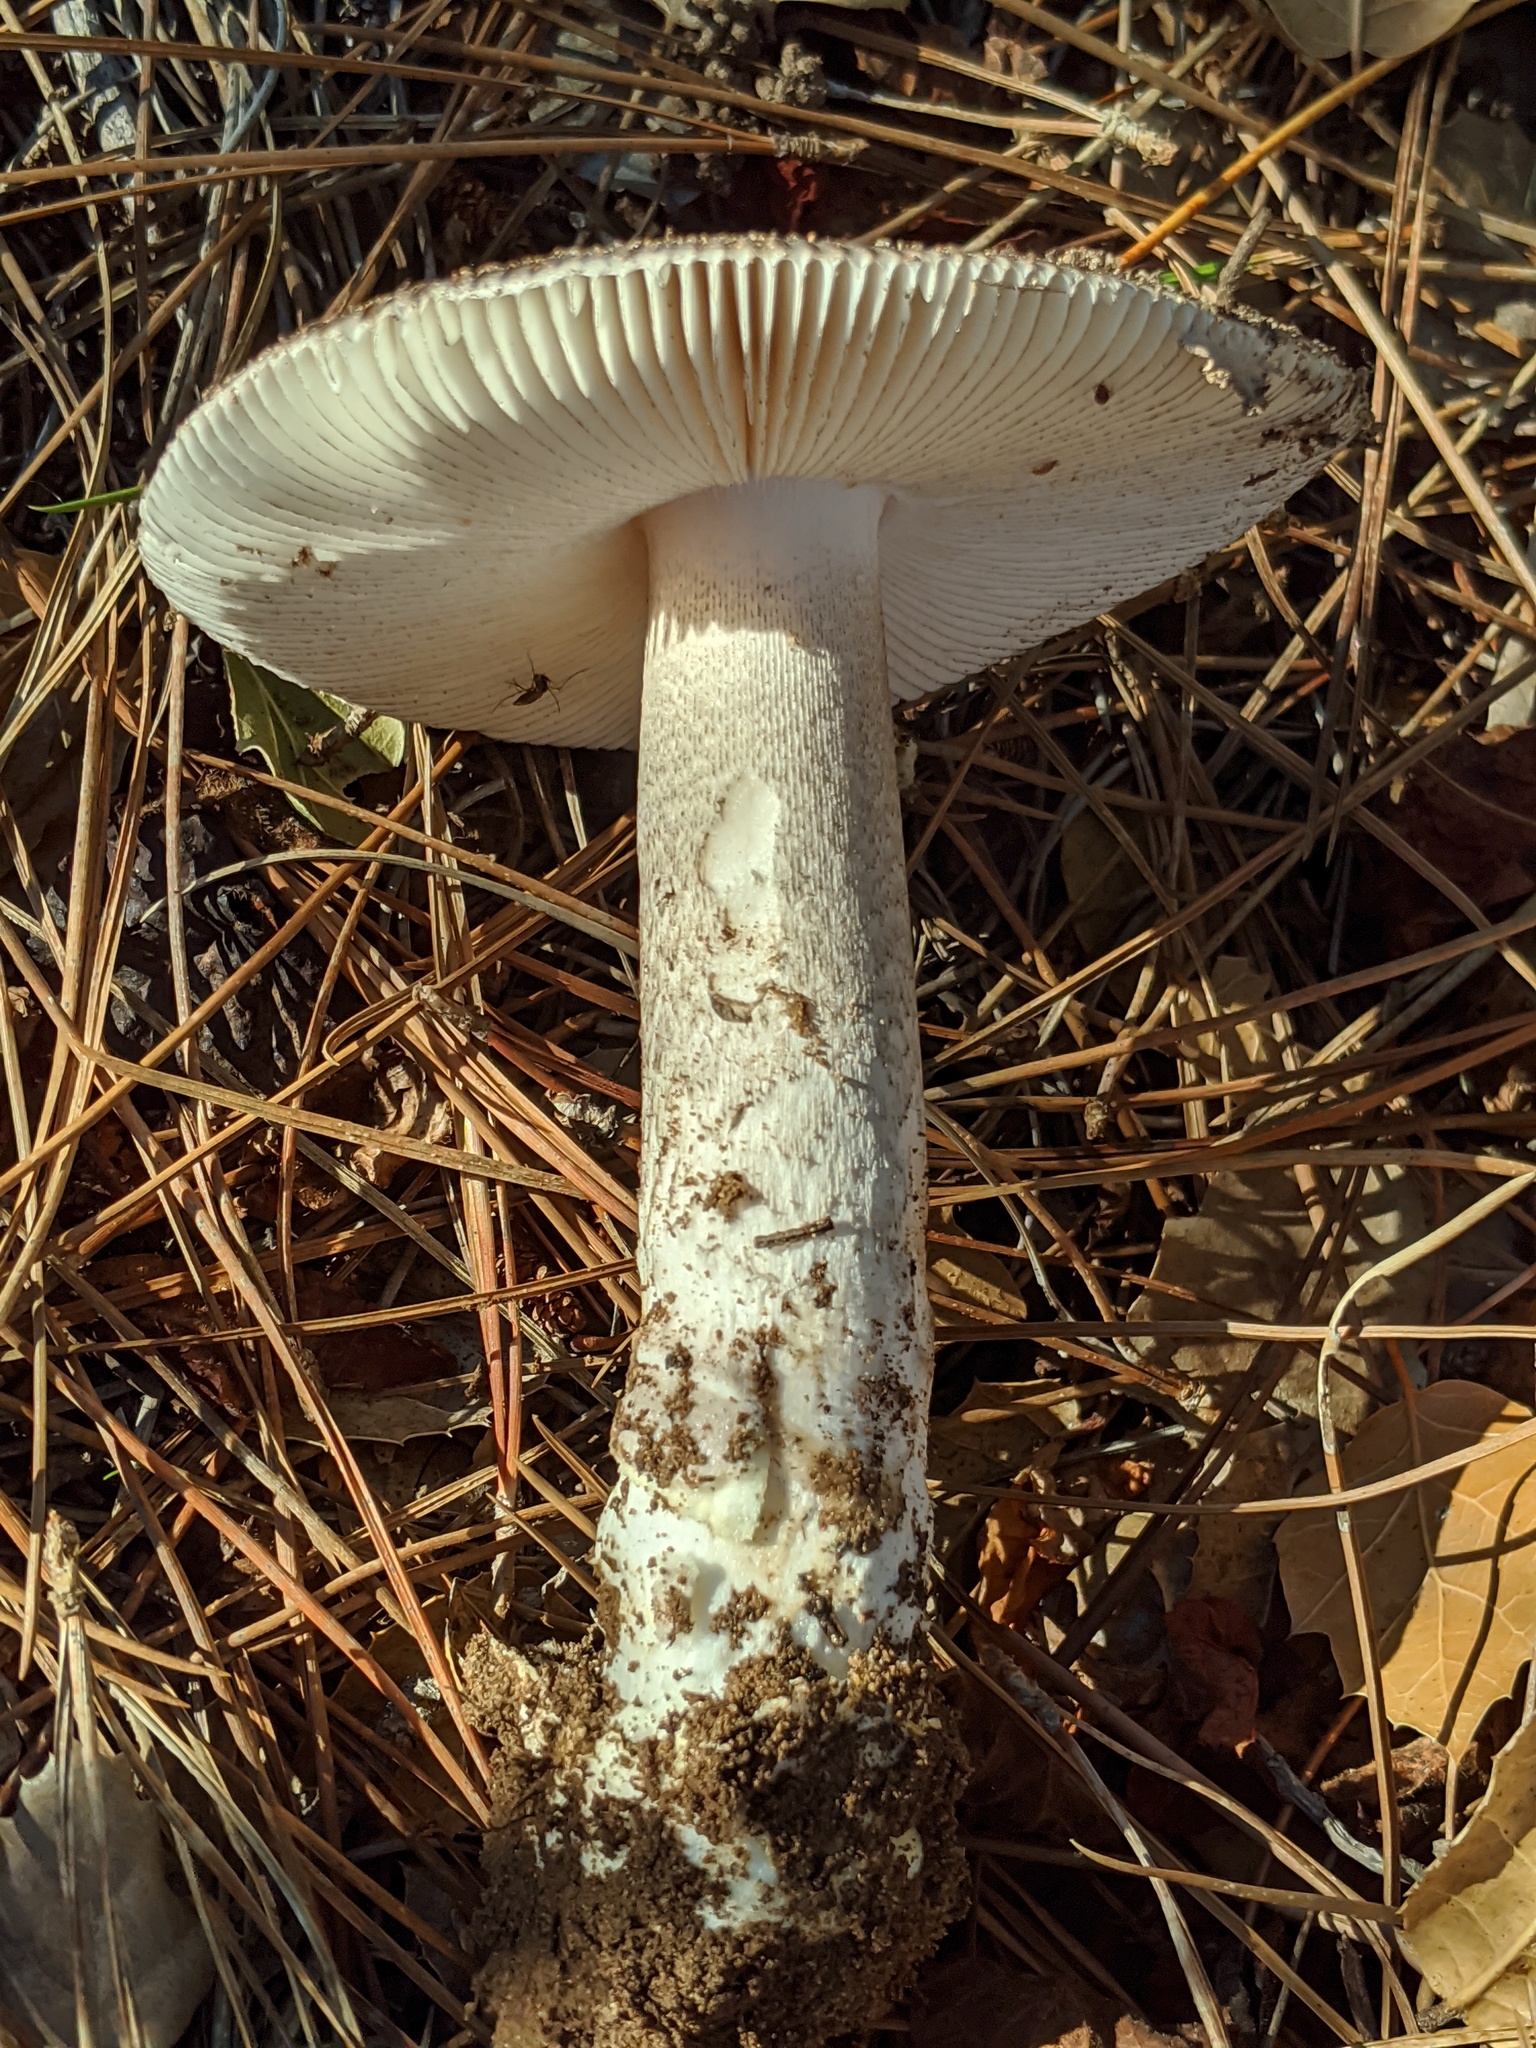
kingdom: Fungi
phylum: Basidiomycota
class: Agaricomycetes
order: Agaricales
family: Amanitaceae
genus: Amanita
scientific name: Amanita constricta
